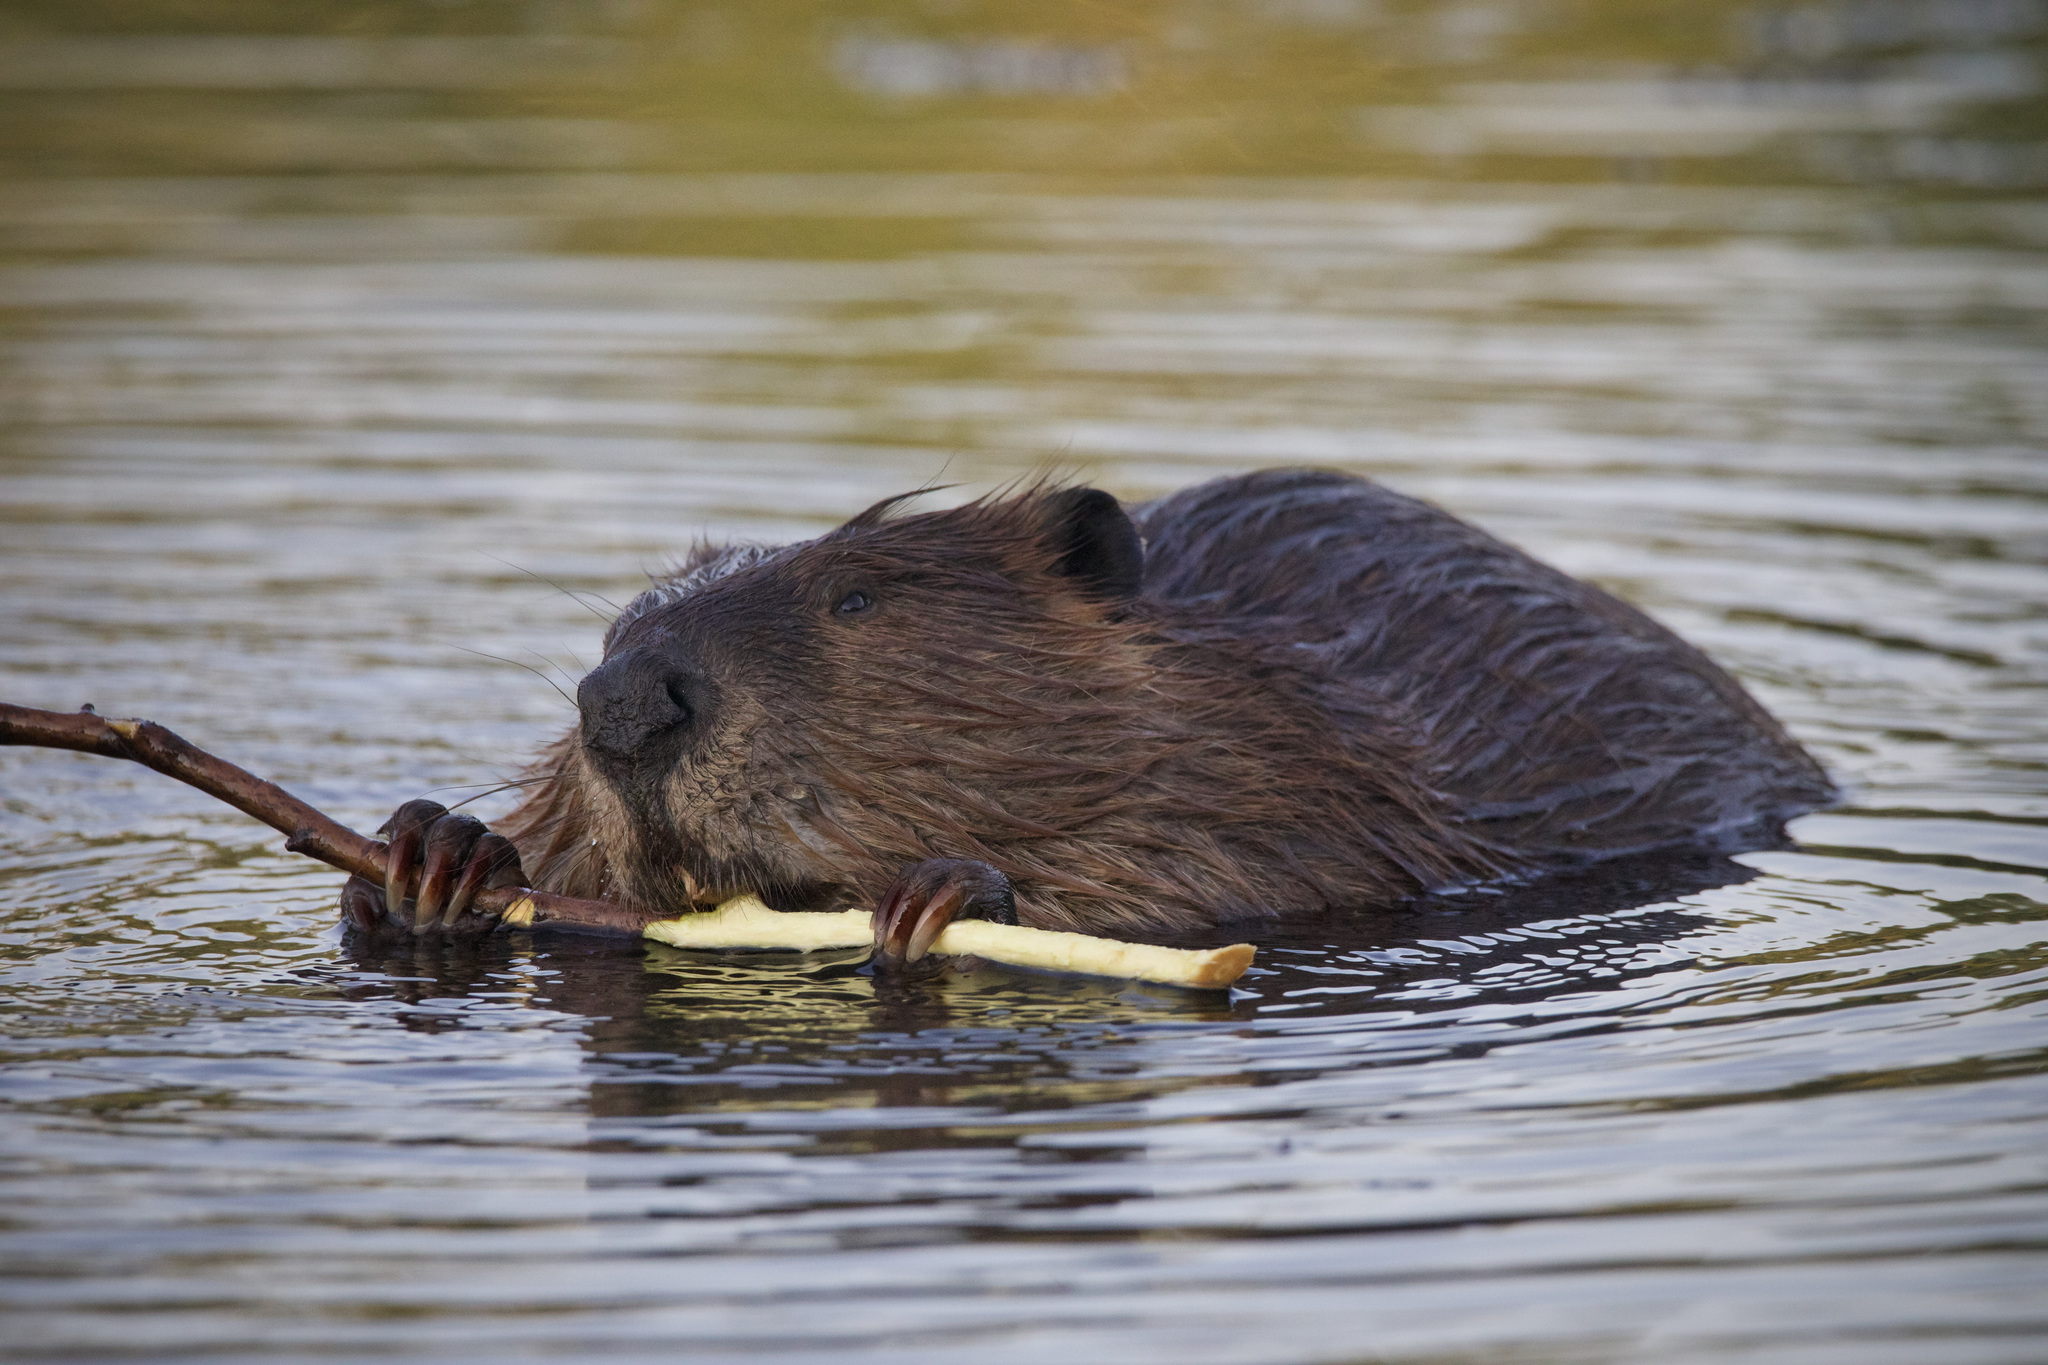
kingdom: Animalia
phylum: Chordata
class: Mammalia
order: Rodentia
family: Castoridae
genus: Castor
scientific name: Castor canadensis
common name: American beaver
